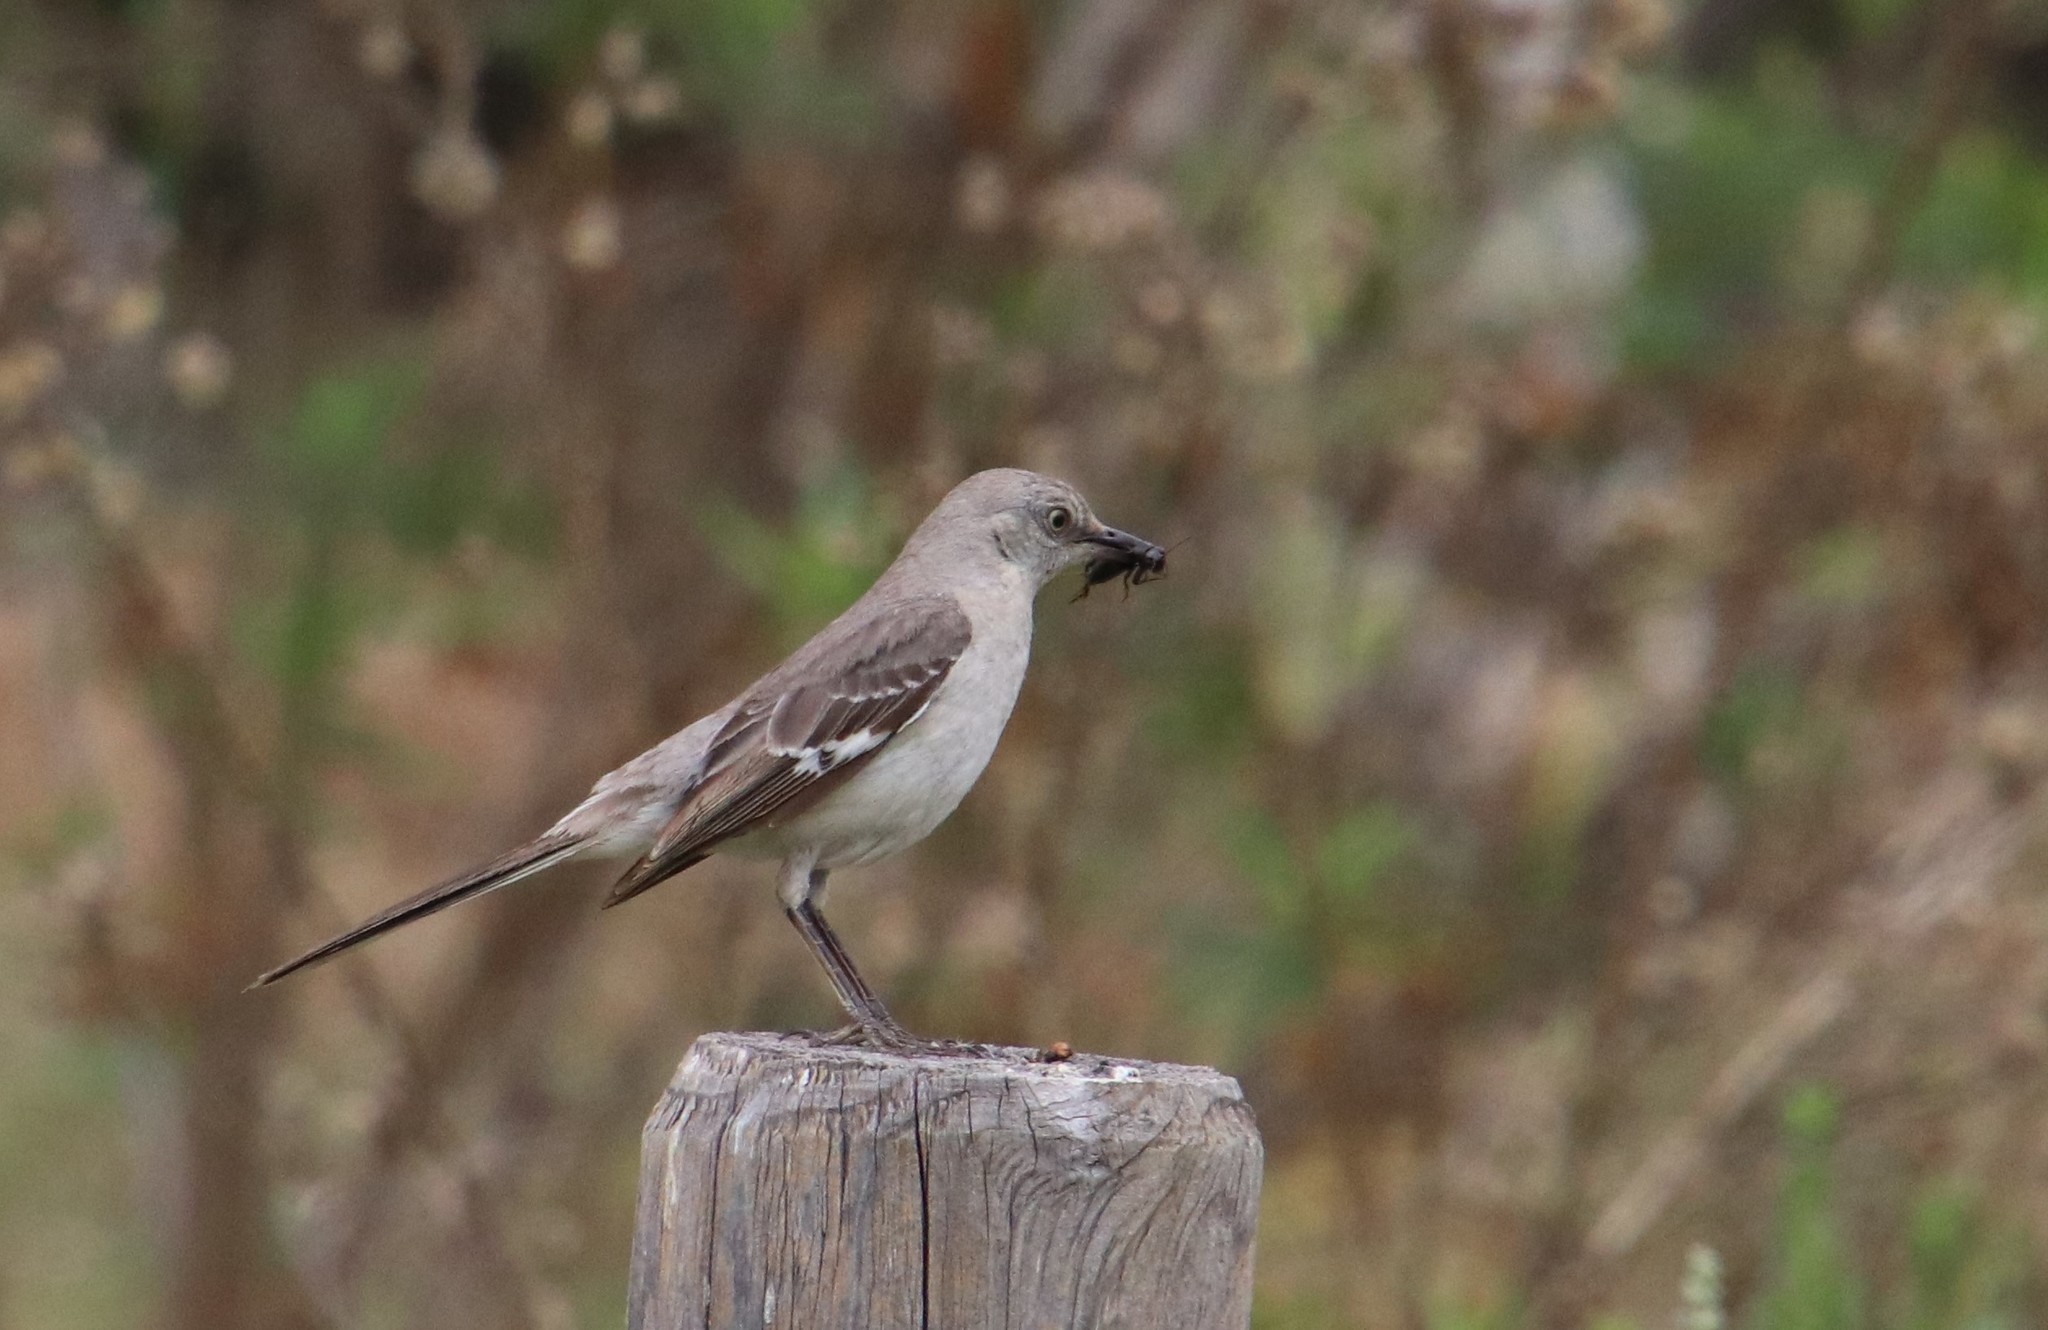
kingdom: Animalia
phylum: Chordata
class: Aves
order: Passeriformes
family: Mimidae
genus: Mimus
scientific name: Mimus polyglottos
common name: Northern mockingbird
